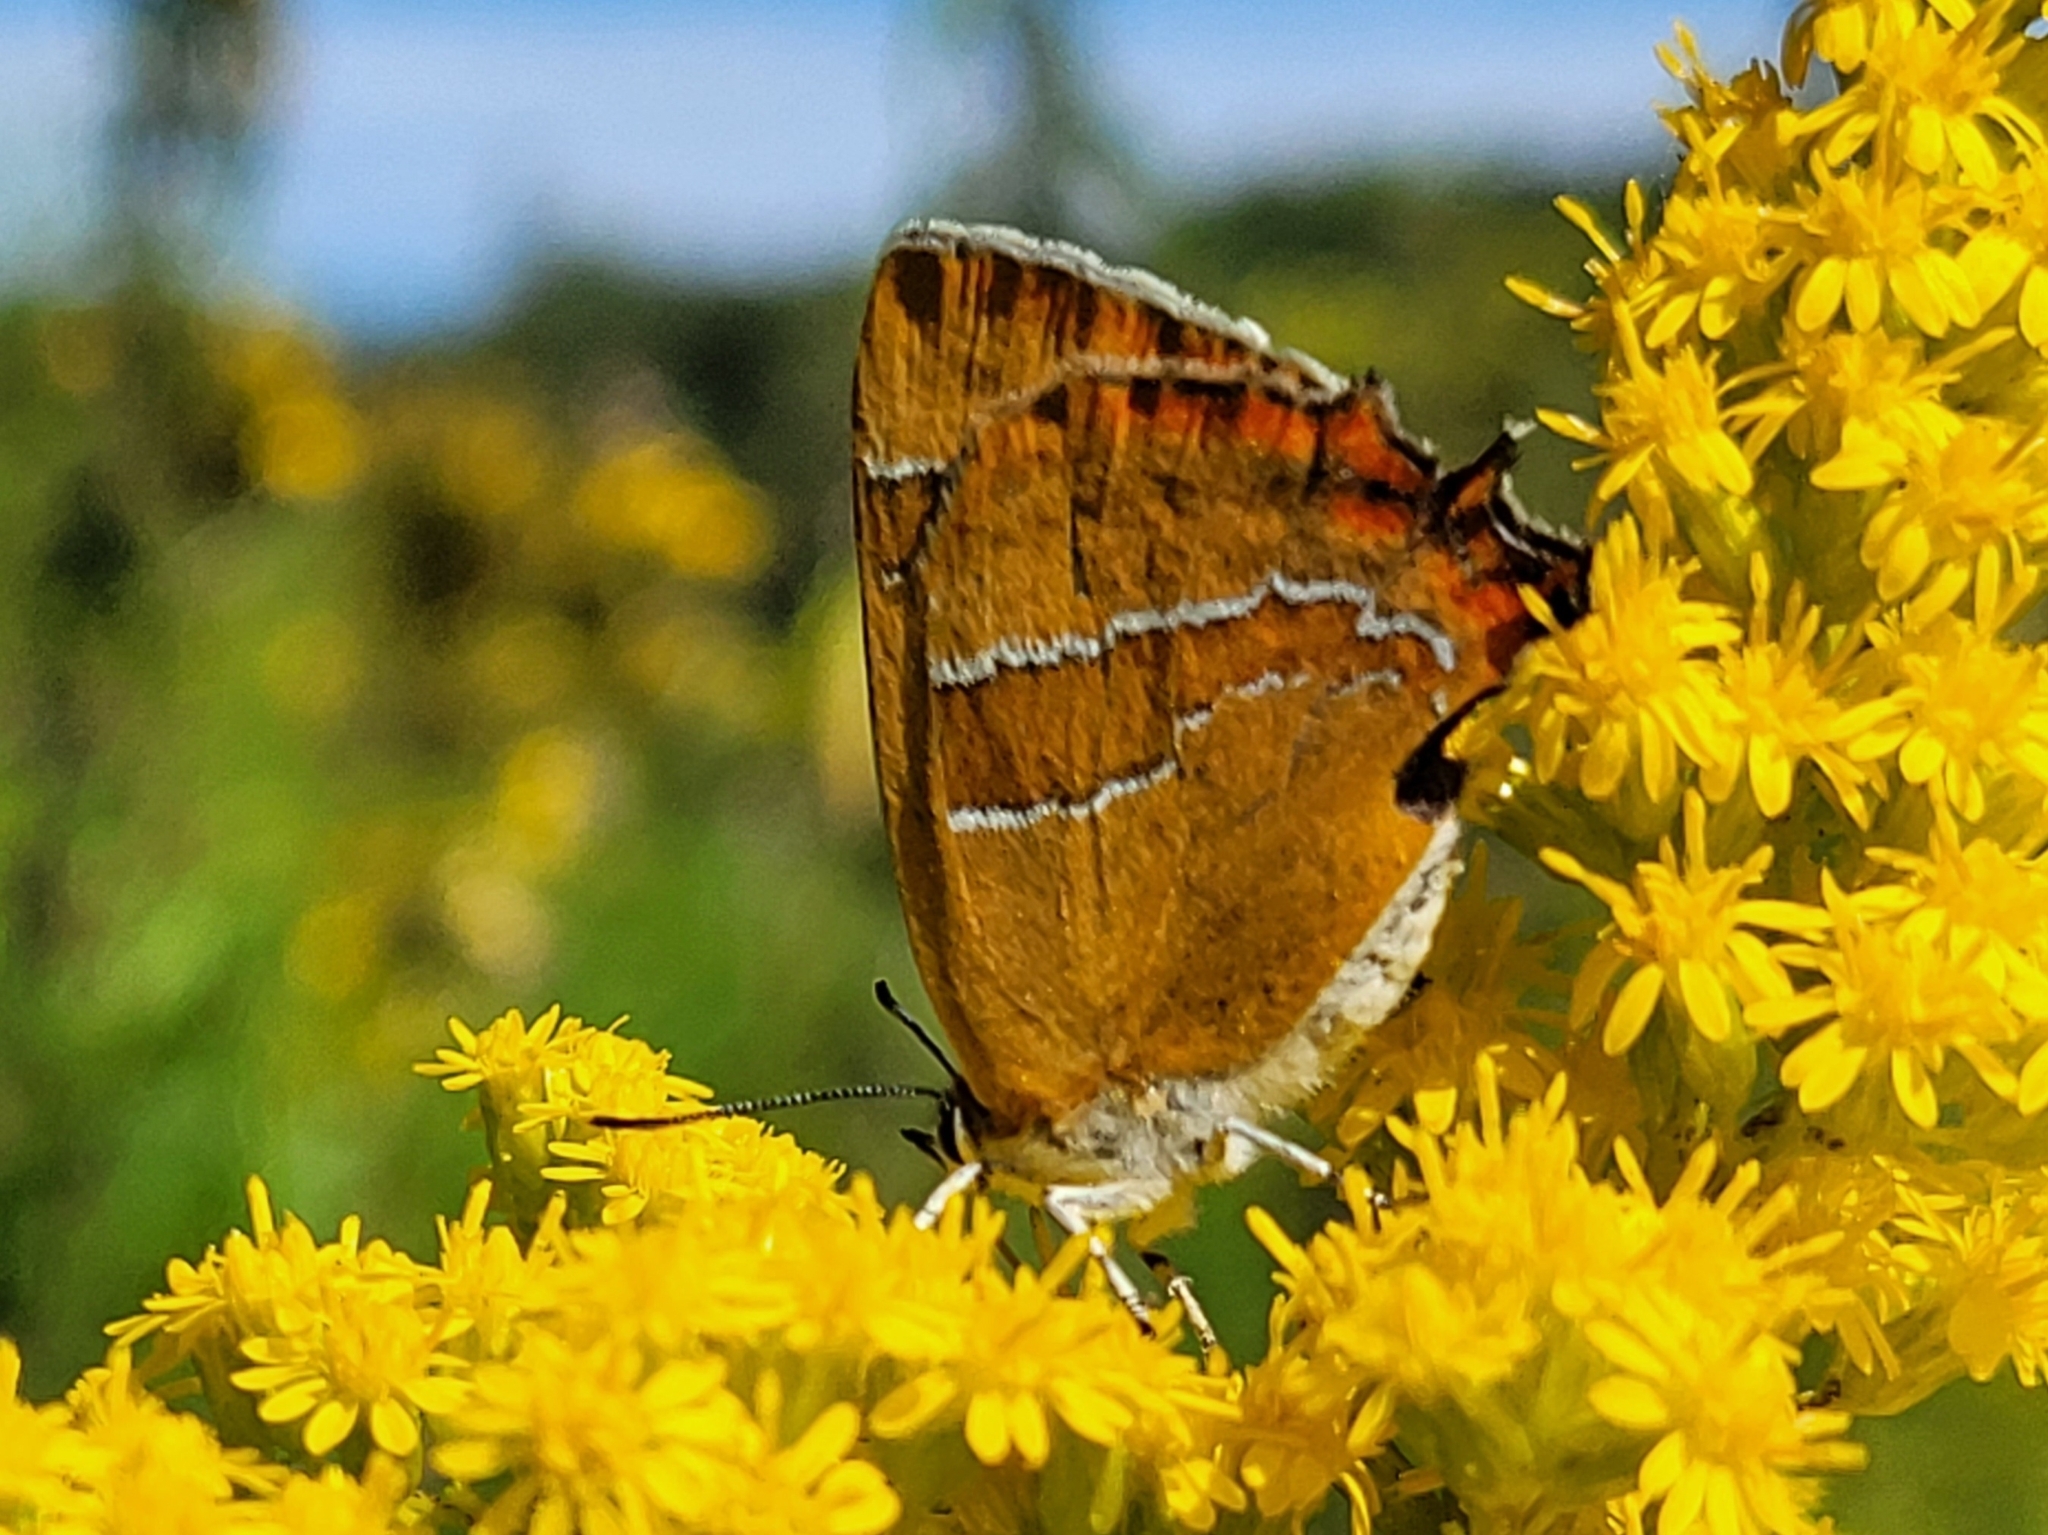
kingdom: Animalia
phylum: Arthropoda
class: Insecta
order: Lepidoptera
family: Lycaenidae
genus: Thecla
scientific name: Thecla betulae
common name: Brown hairstreak
